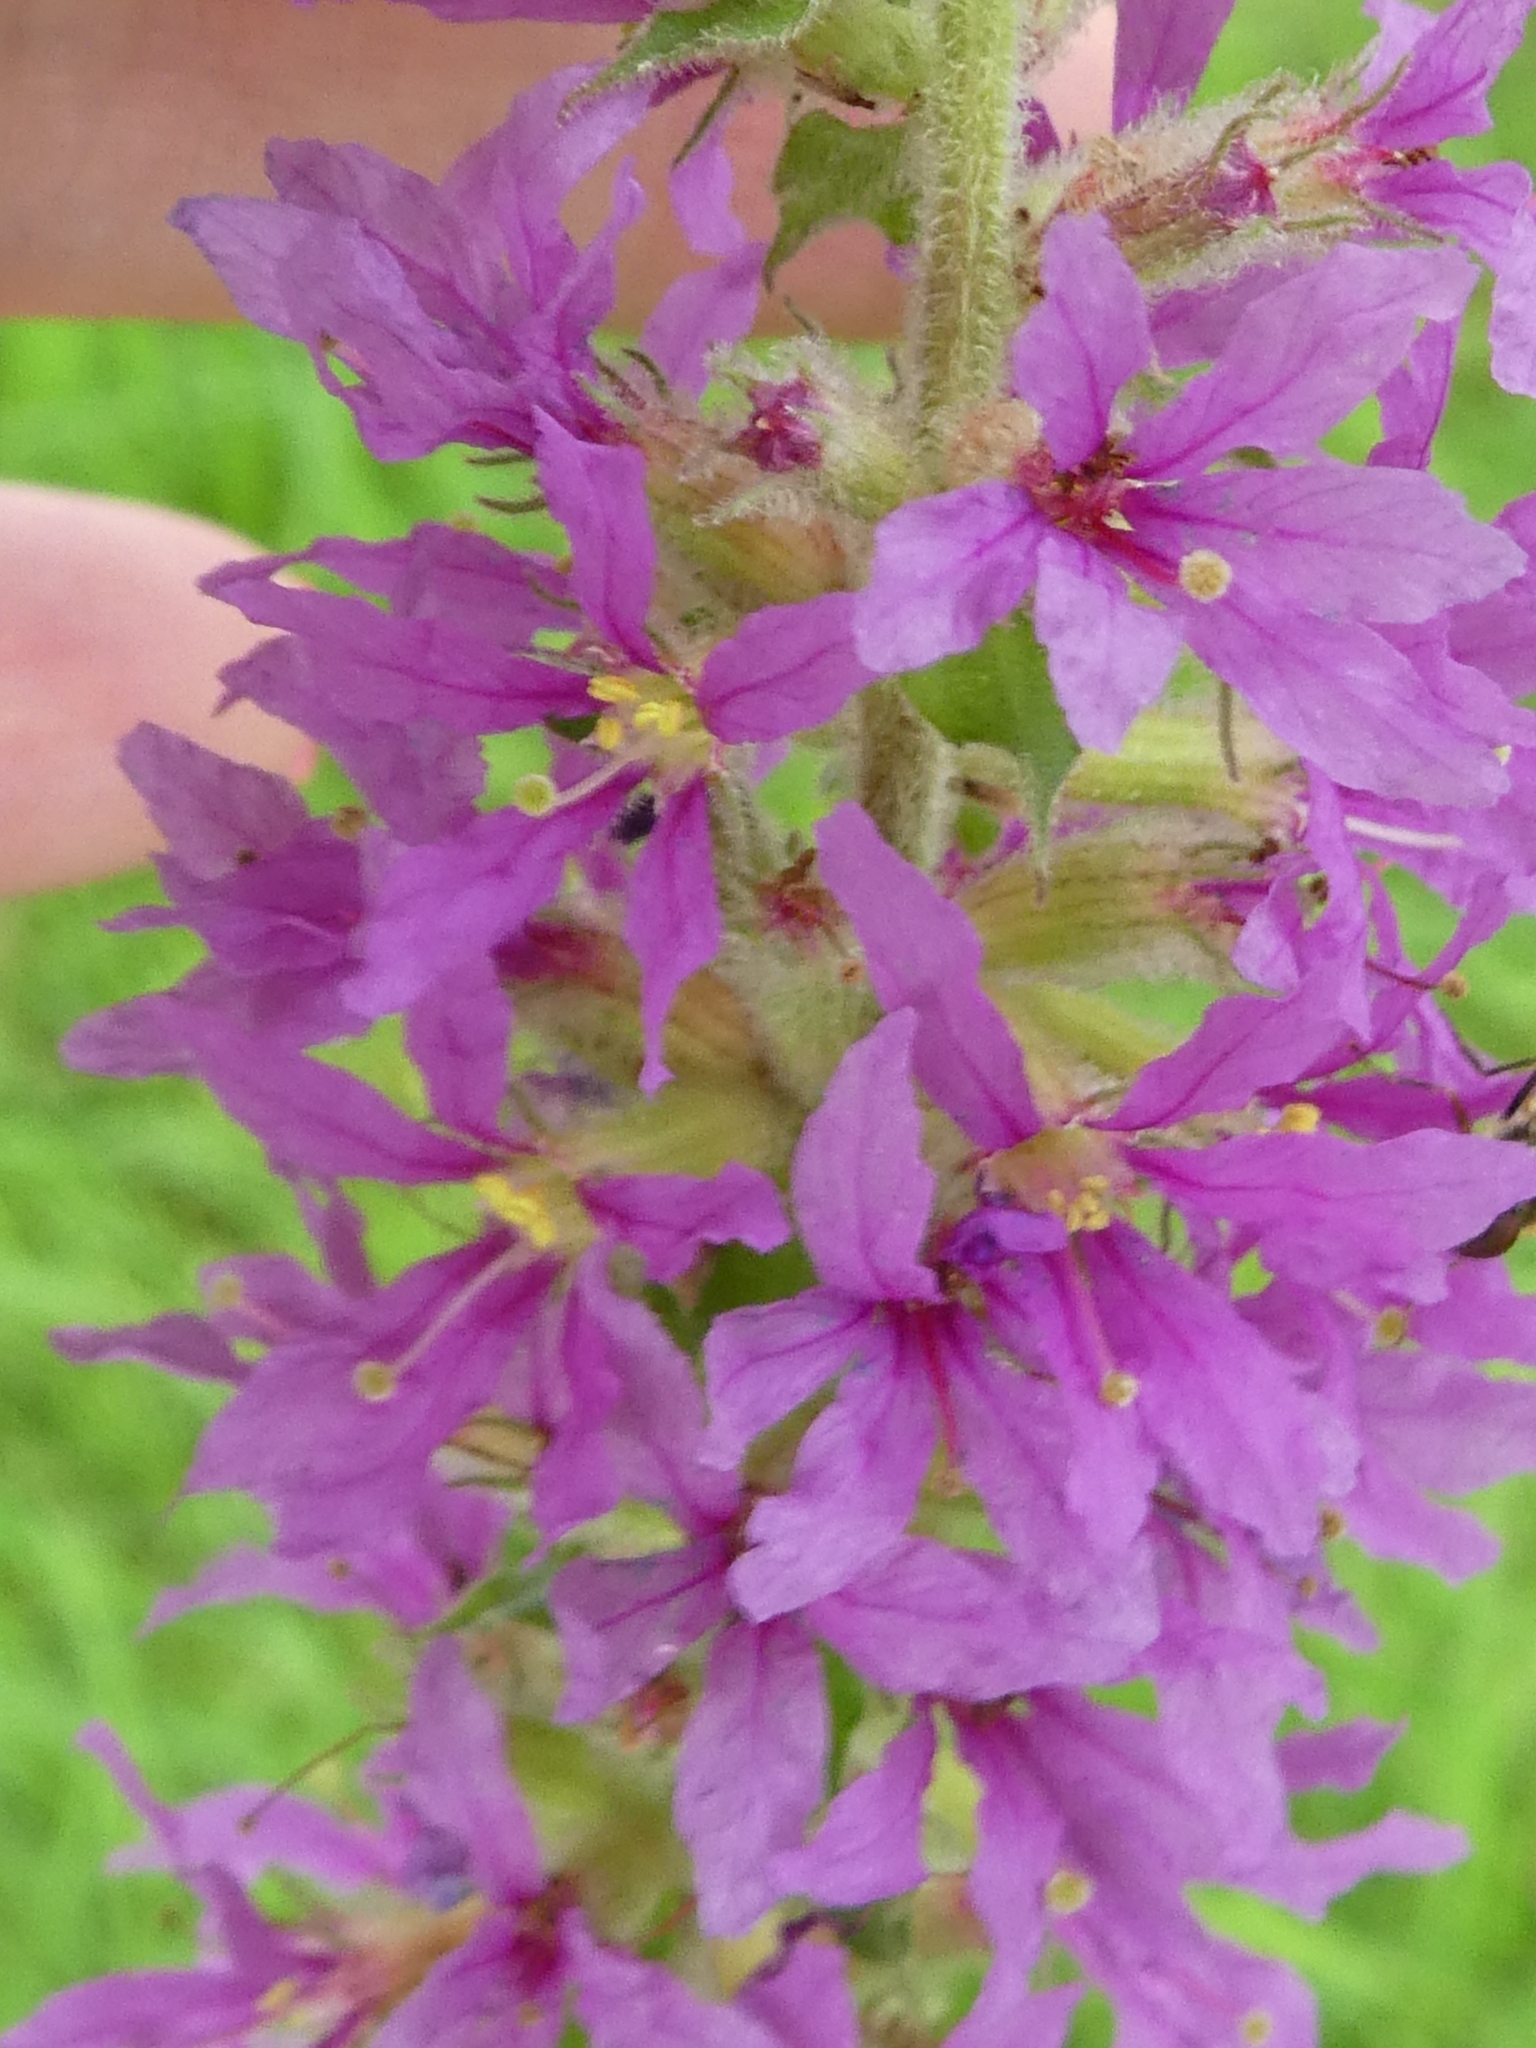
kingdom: Plantae
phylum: Tracheophyta
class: Magnoliopsida
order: Myrtales
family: Lythraceae
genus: Lythrum
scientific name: Lythrum salicaria
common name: Purple loosestrife
